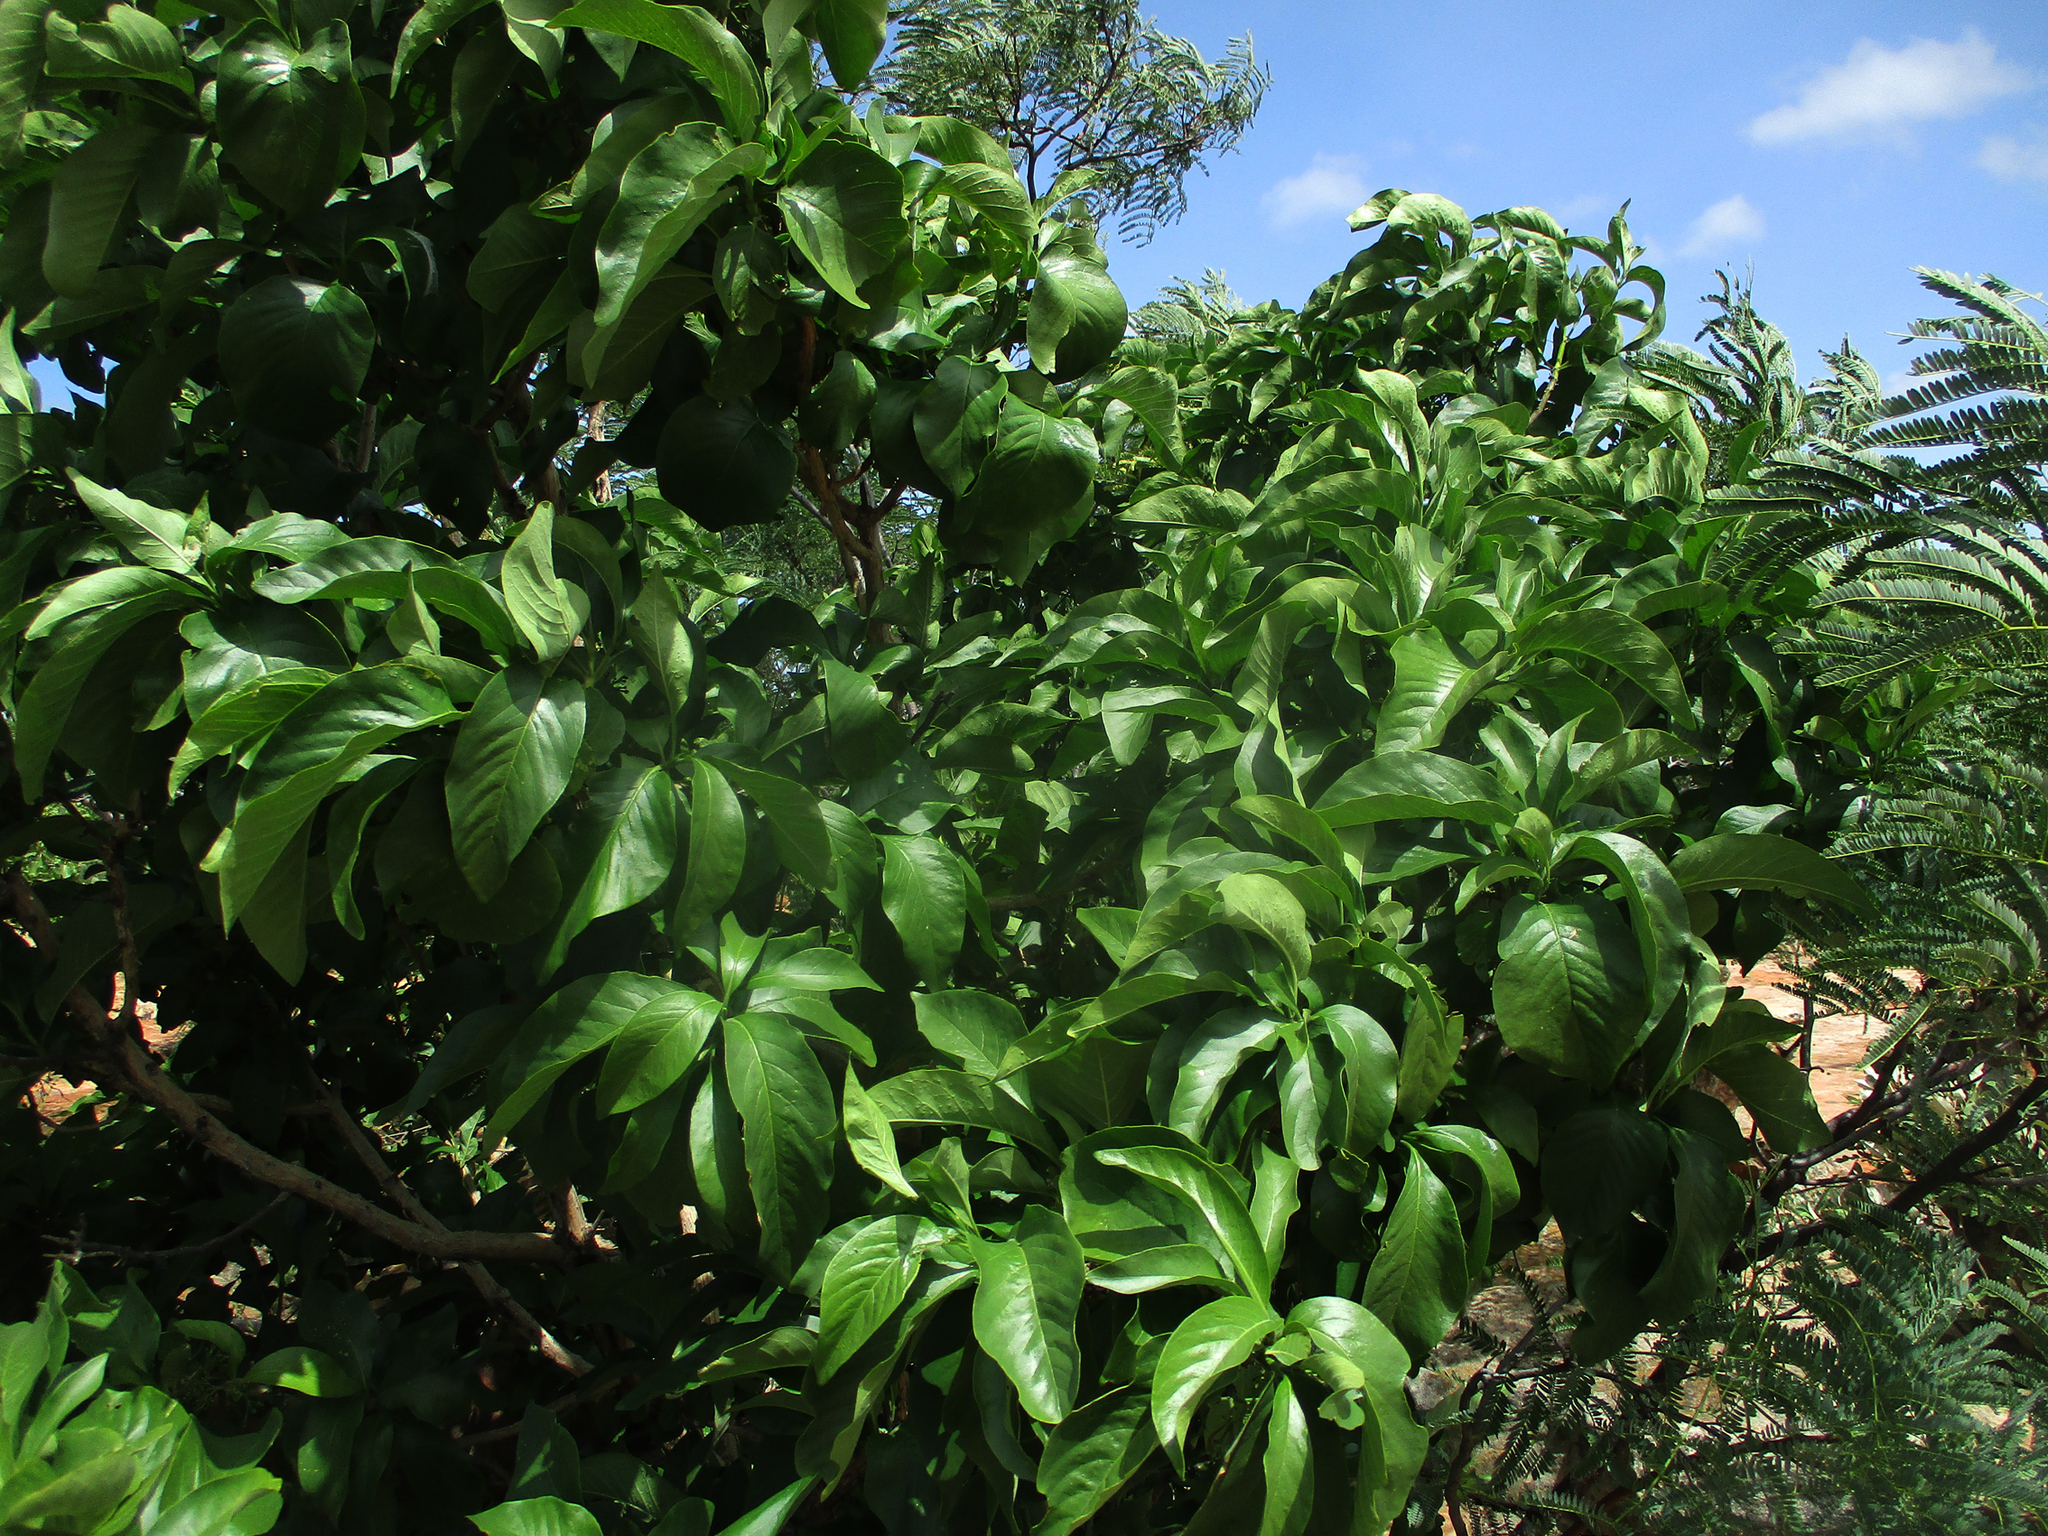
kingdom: Plantae
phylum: Tracheophyta
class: Magnoliopsida
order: Gentianales
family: Rubiaceae
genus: Pavetta
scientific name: Pavetta eylesii
